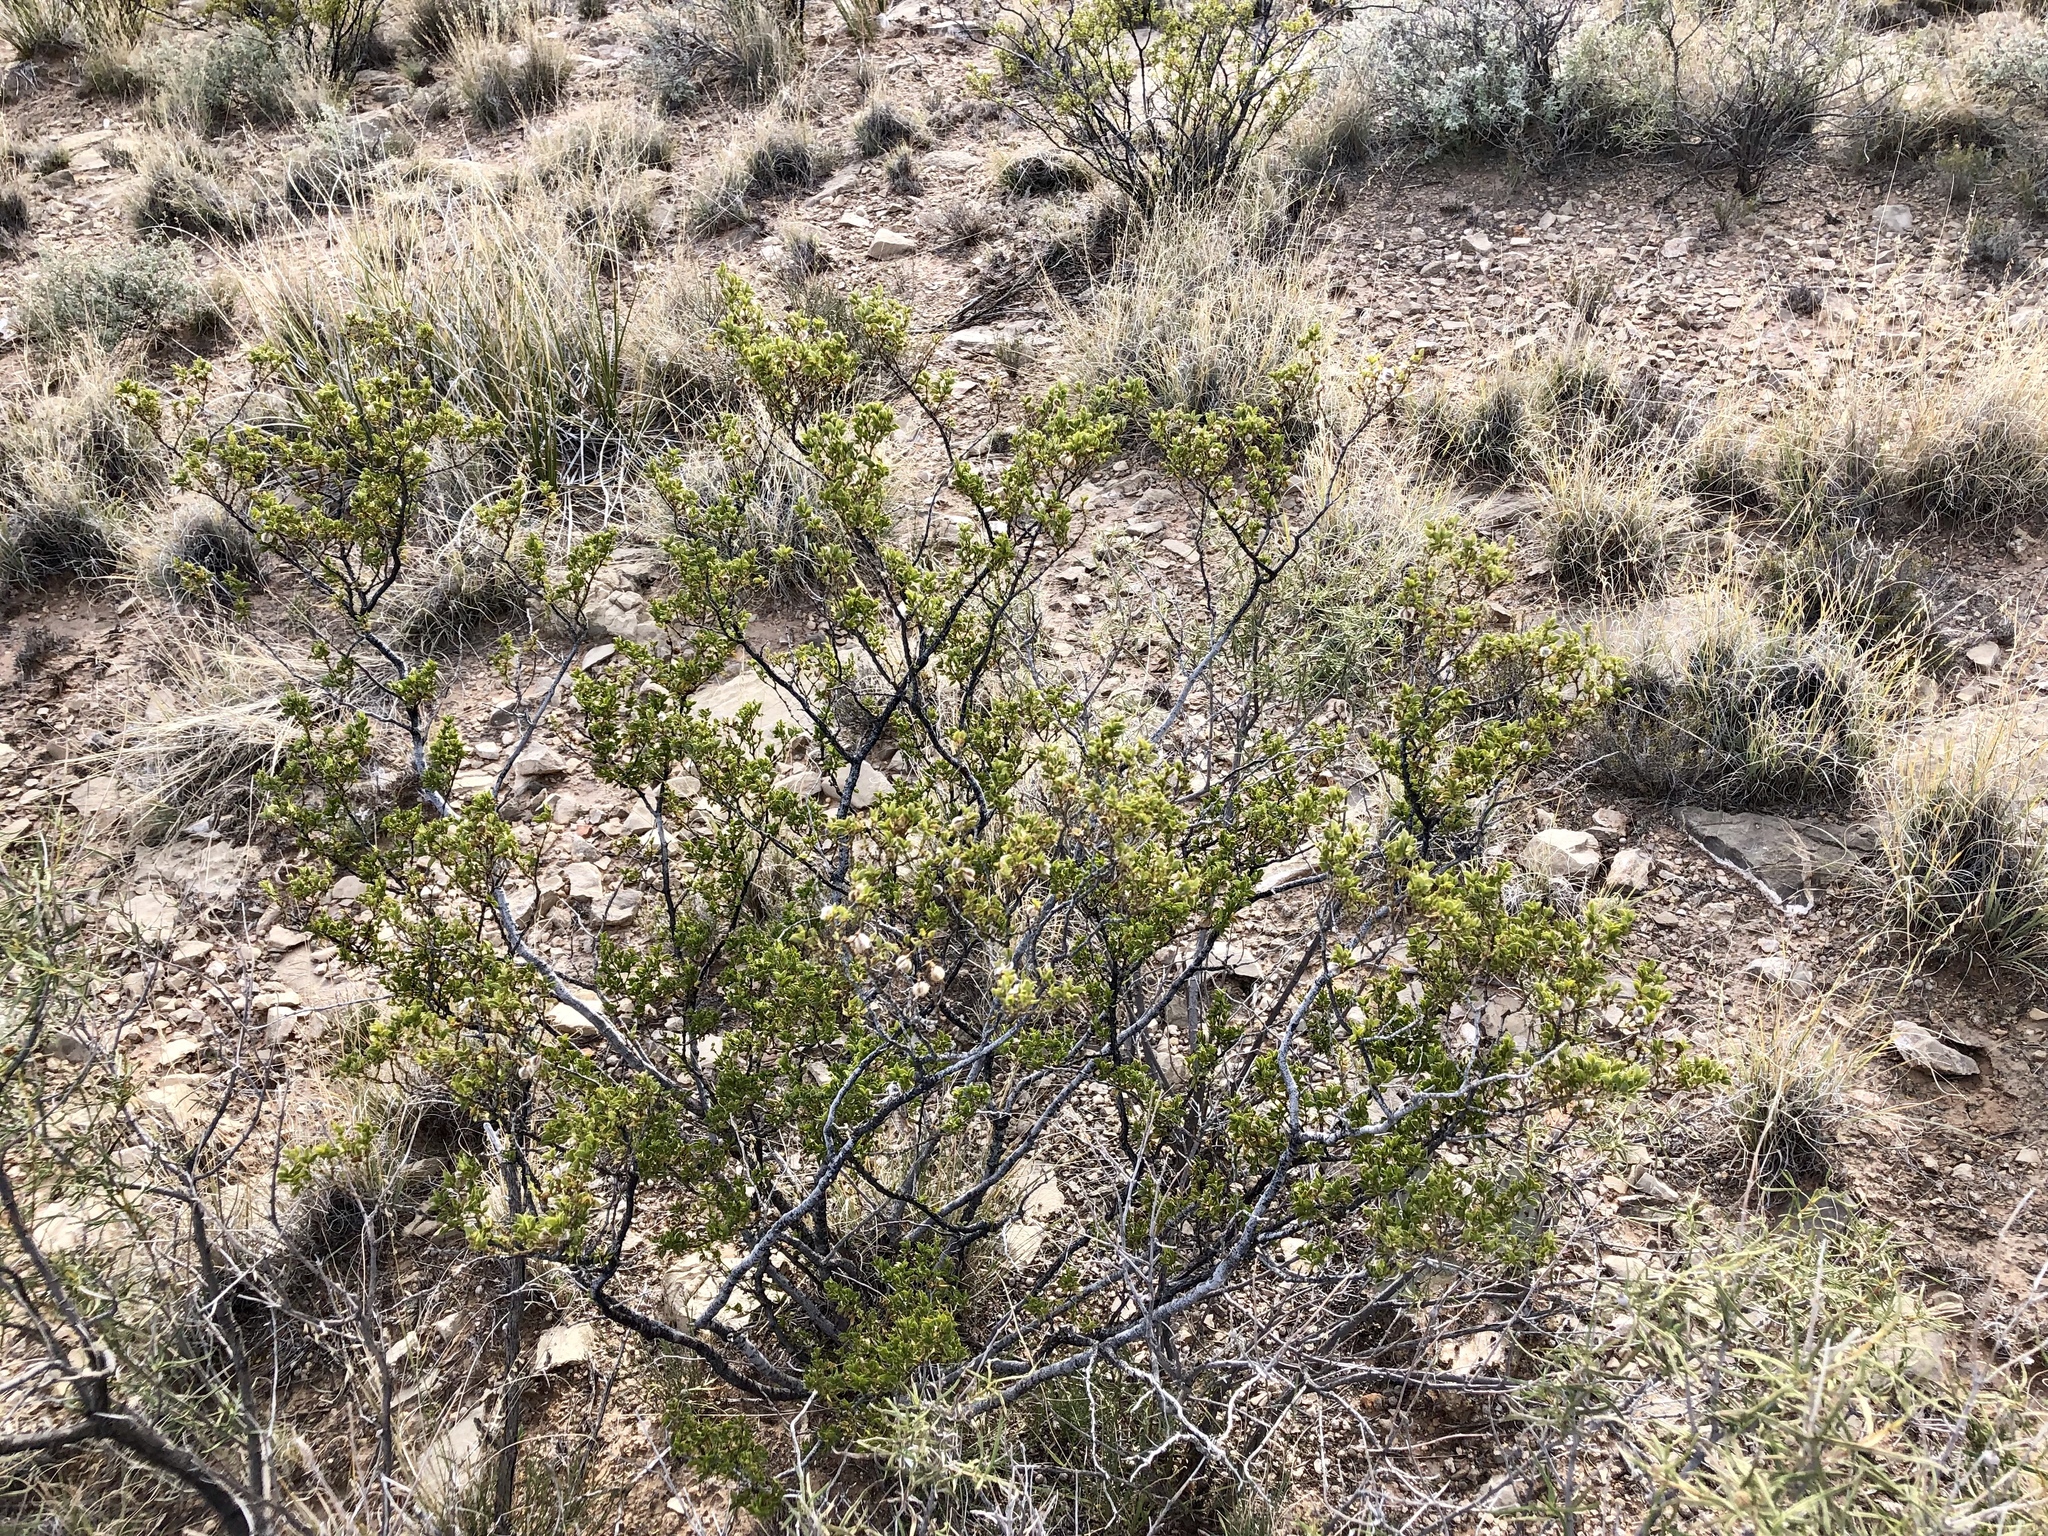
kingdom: Plantae
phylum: Tracheophyta
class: Magnoliopsida
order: Zygophyllales
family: Zygophyllaceae
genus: Larrea
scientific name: Larrea tridentata
